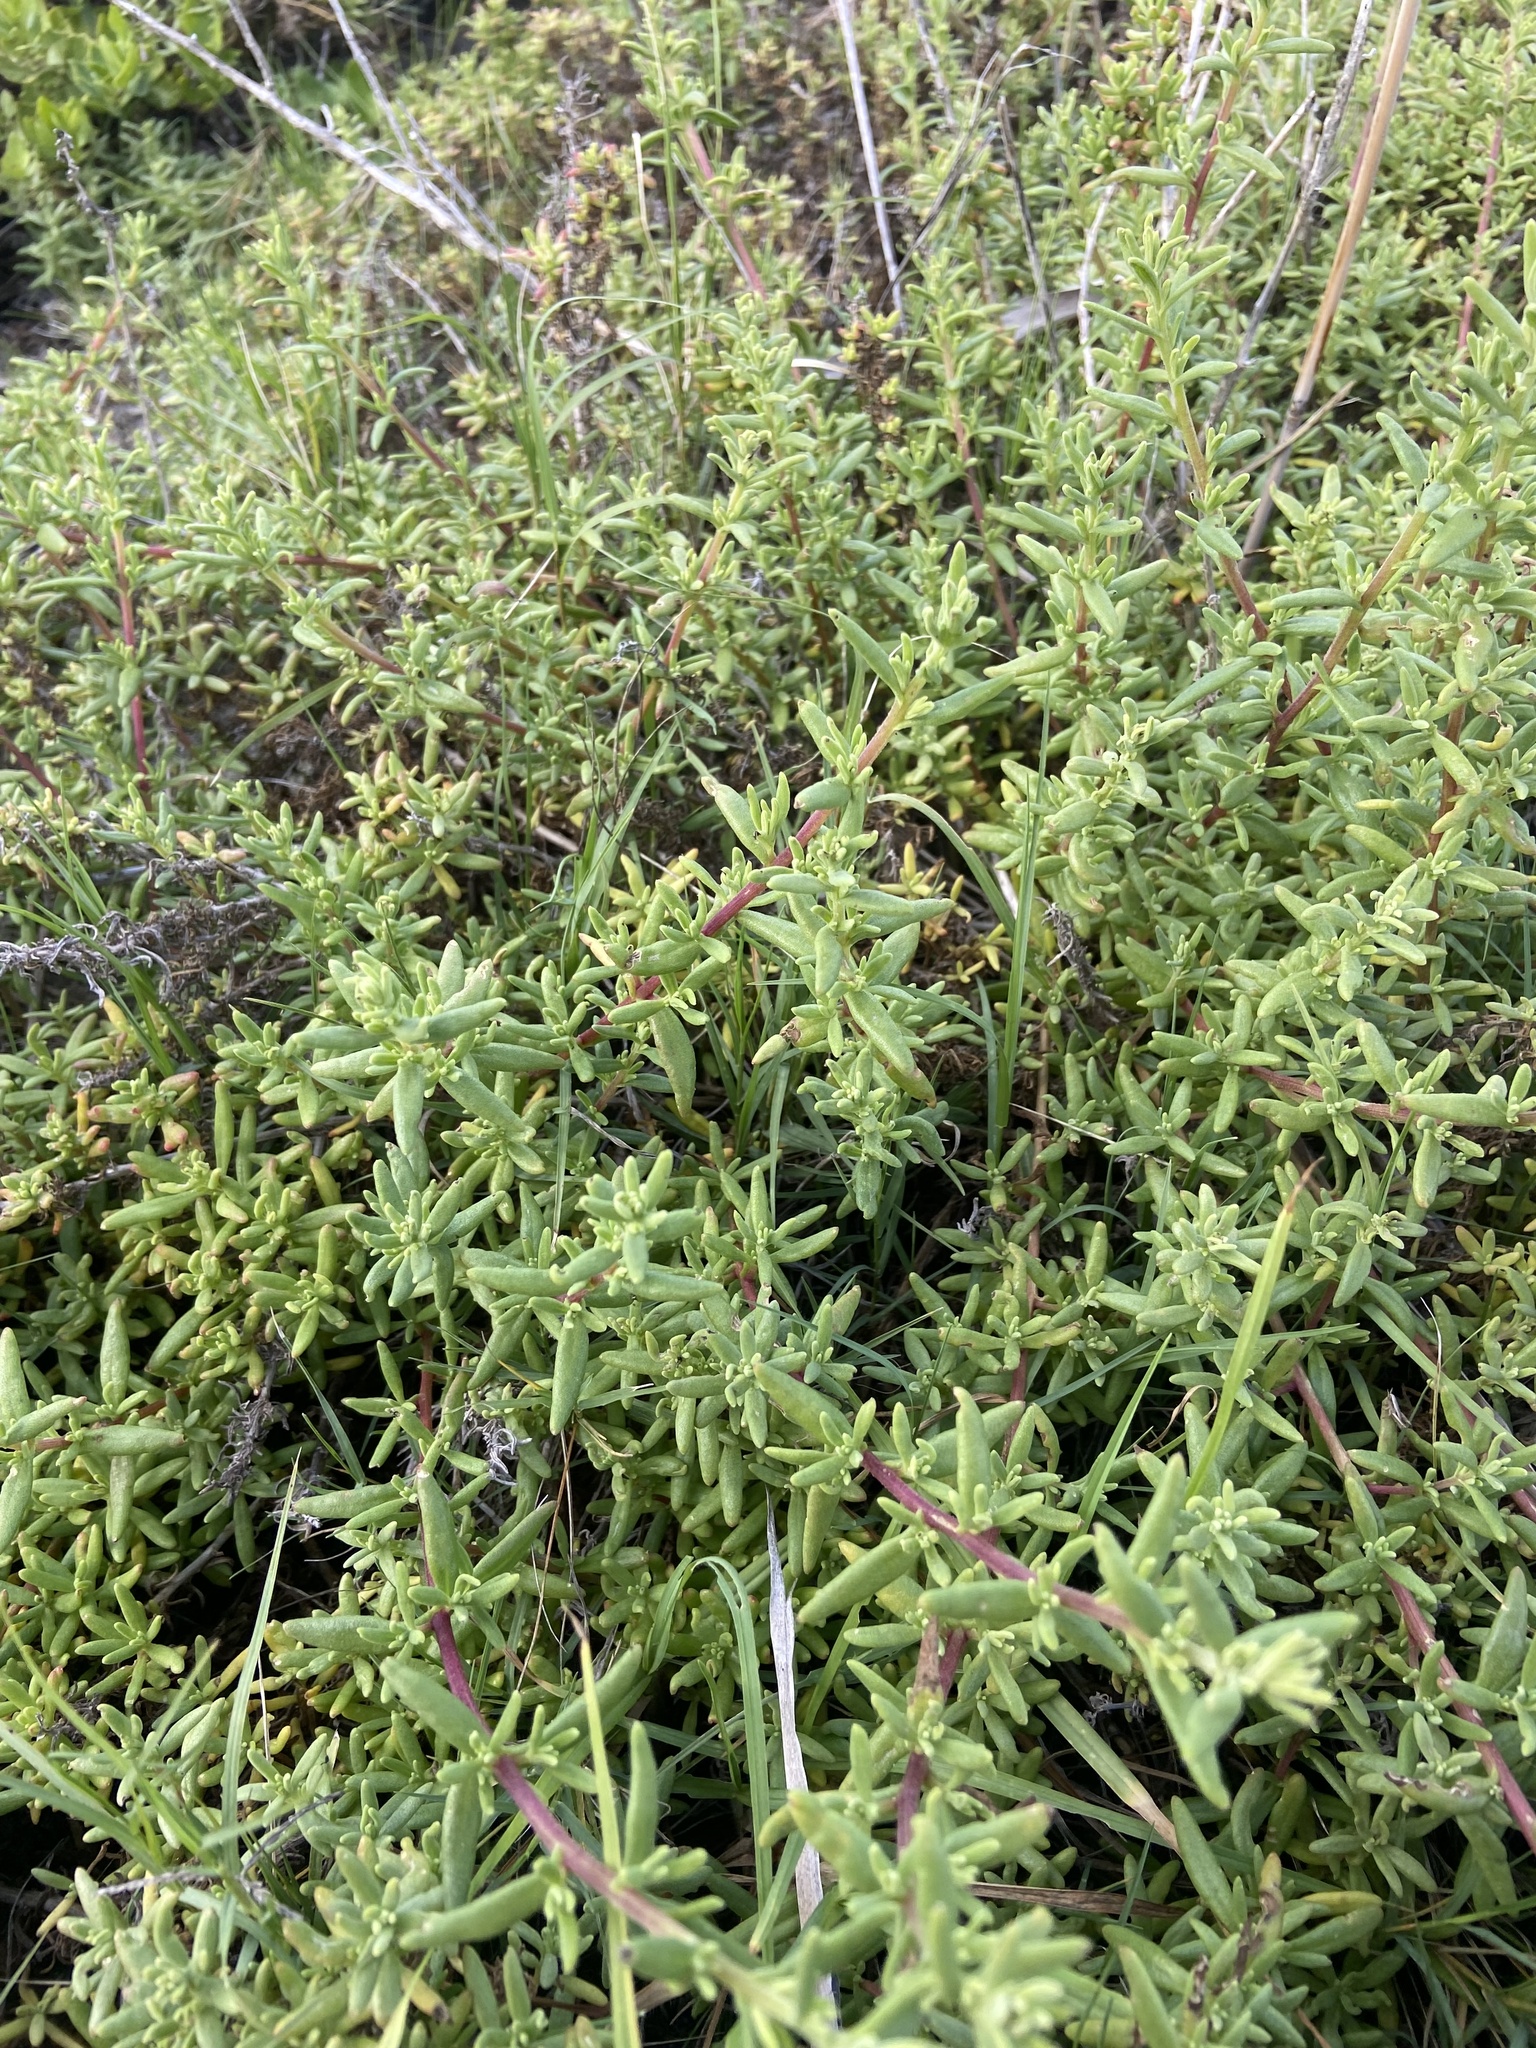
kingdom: Plantae
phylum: Tracheophyta
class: Magnoliopsida
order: Caryophyllales
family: Aizoaceae
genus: Tetragonia
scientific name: Tetragonia fruticosa
